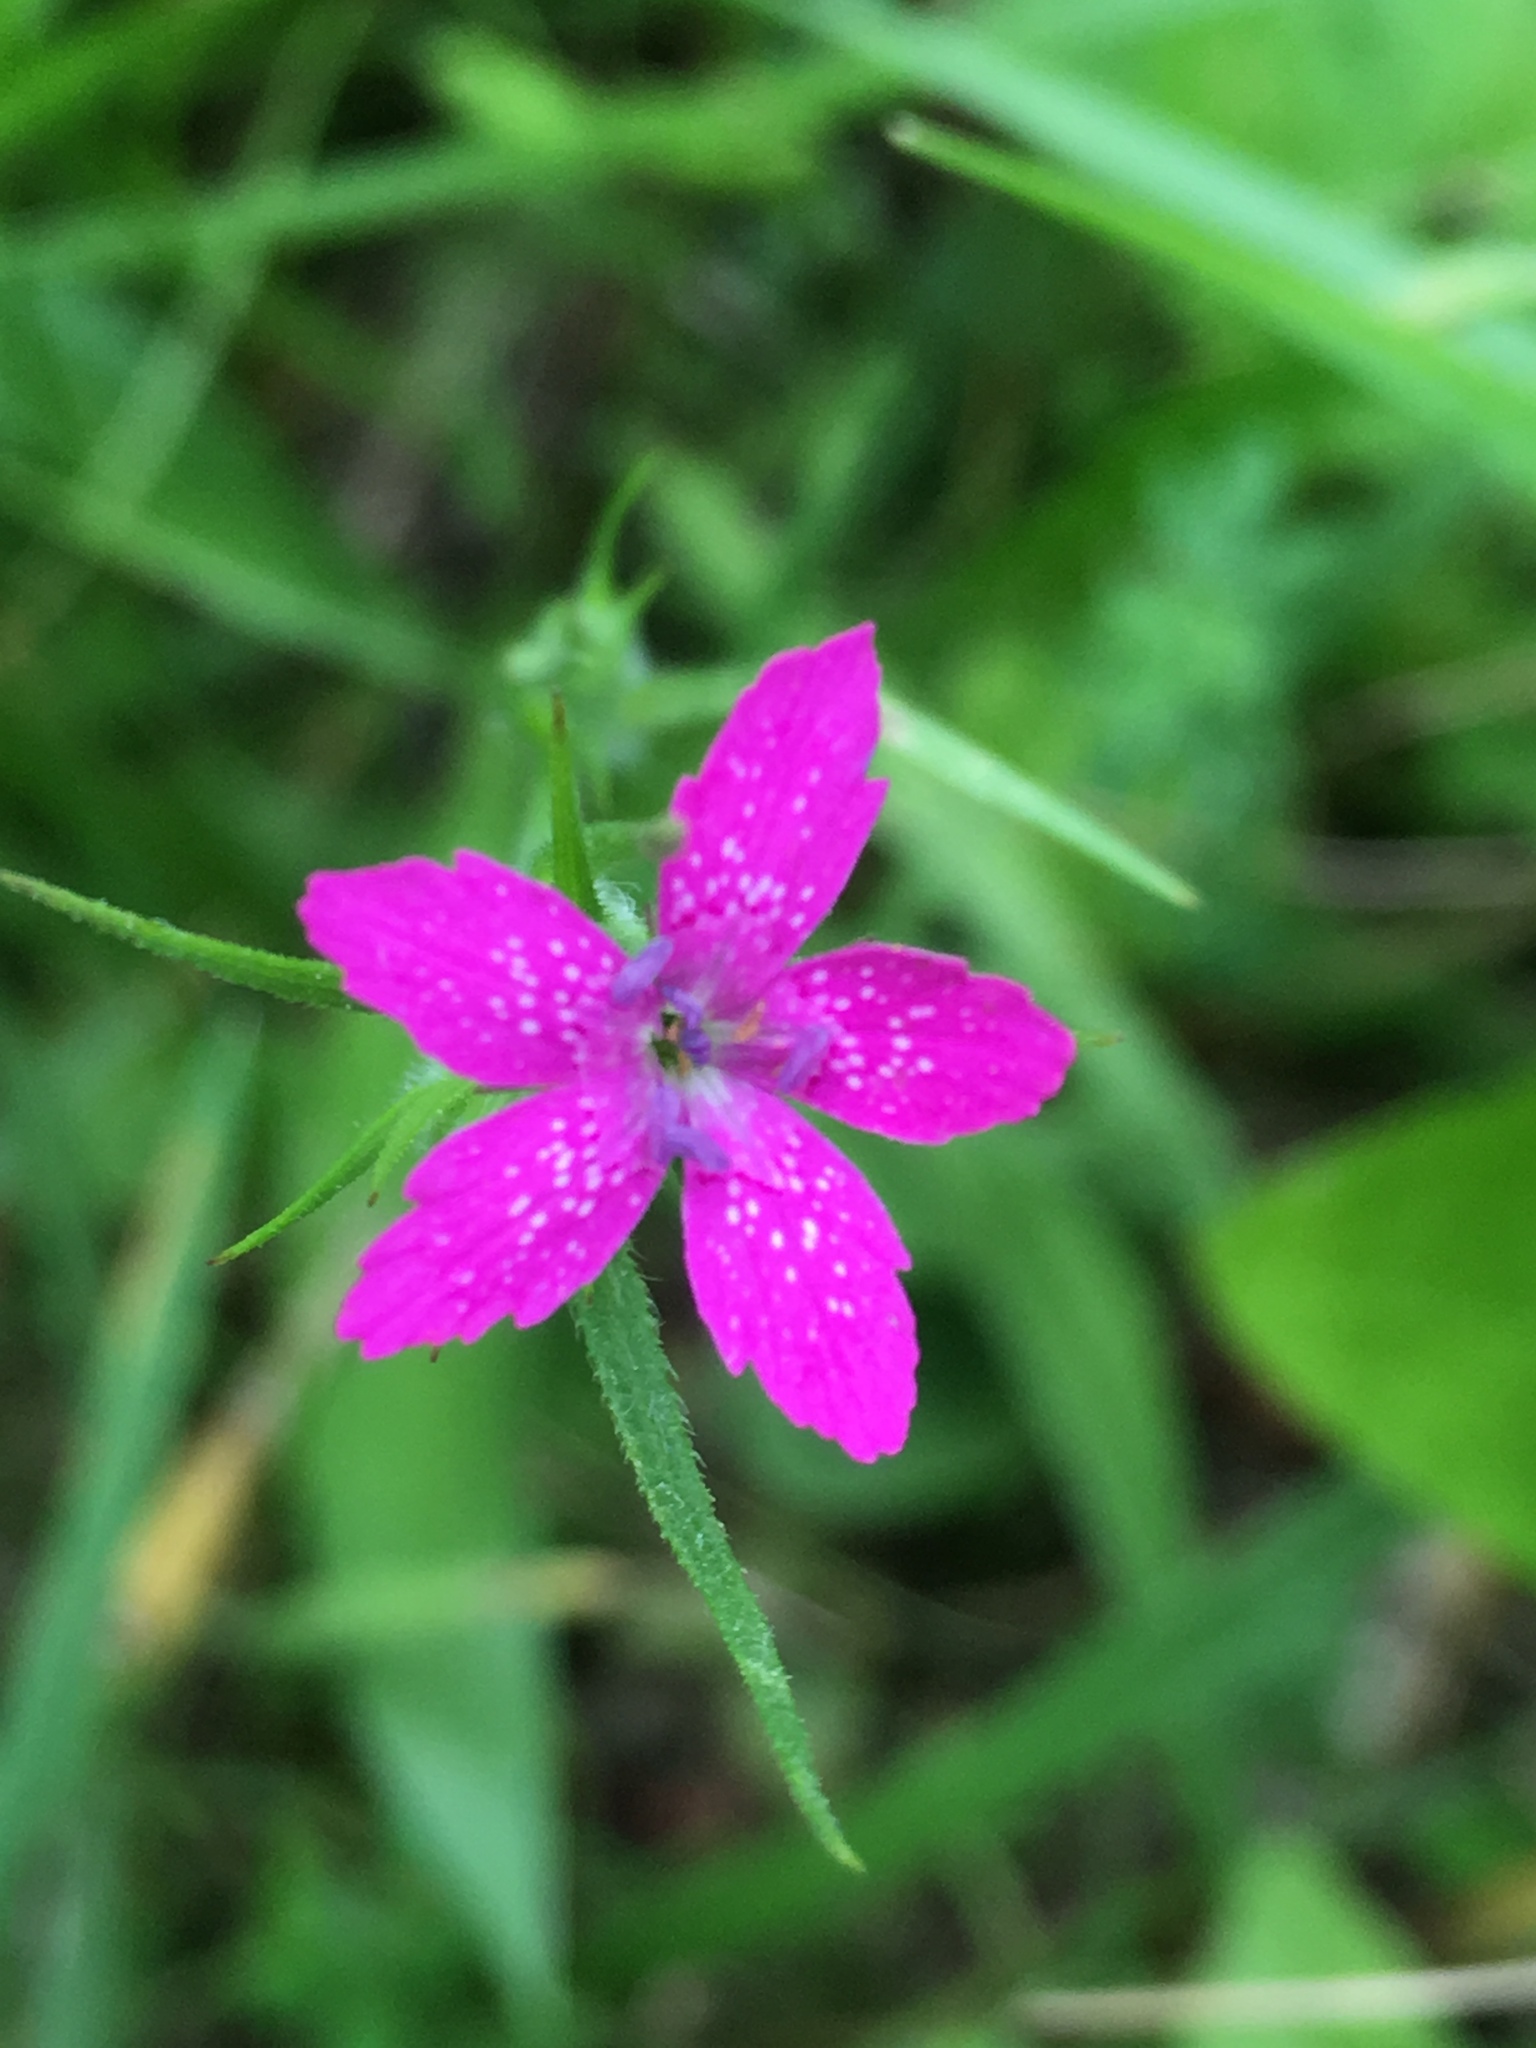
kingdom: Plantae
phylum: Tracheophyta
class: Magnoliopsida
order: Caryophyllales
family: Caryophyllaceae
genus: Dianthus
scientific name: Dianthus armeria
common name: Deptford pink
